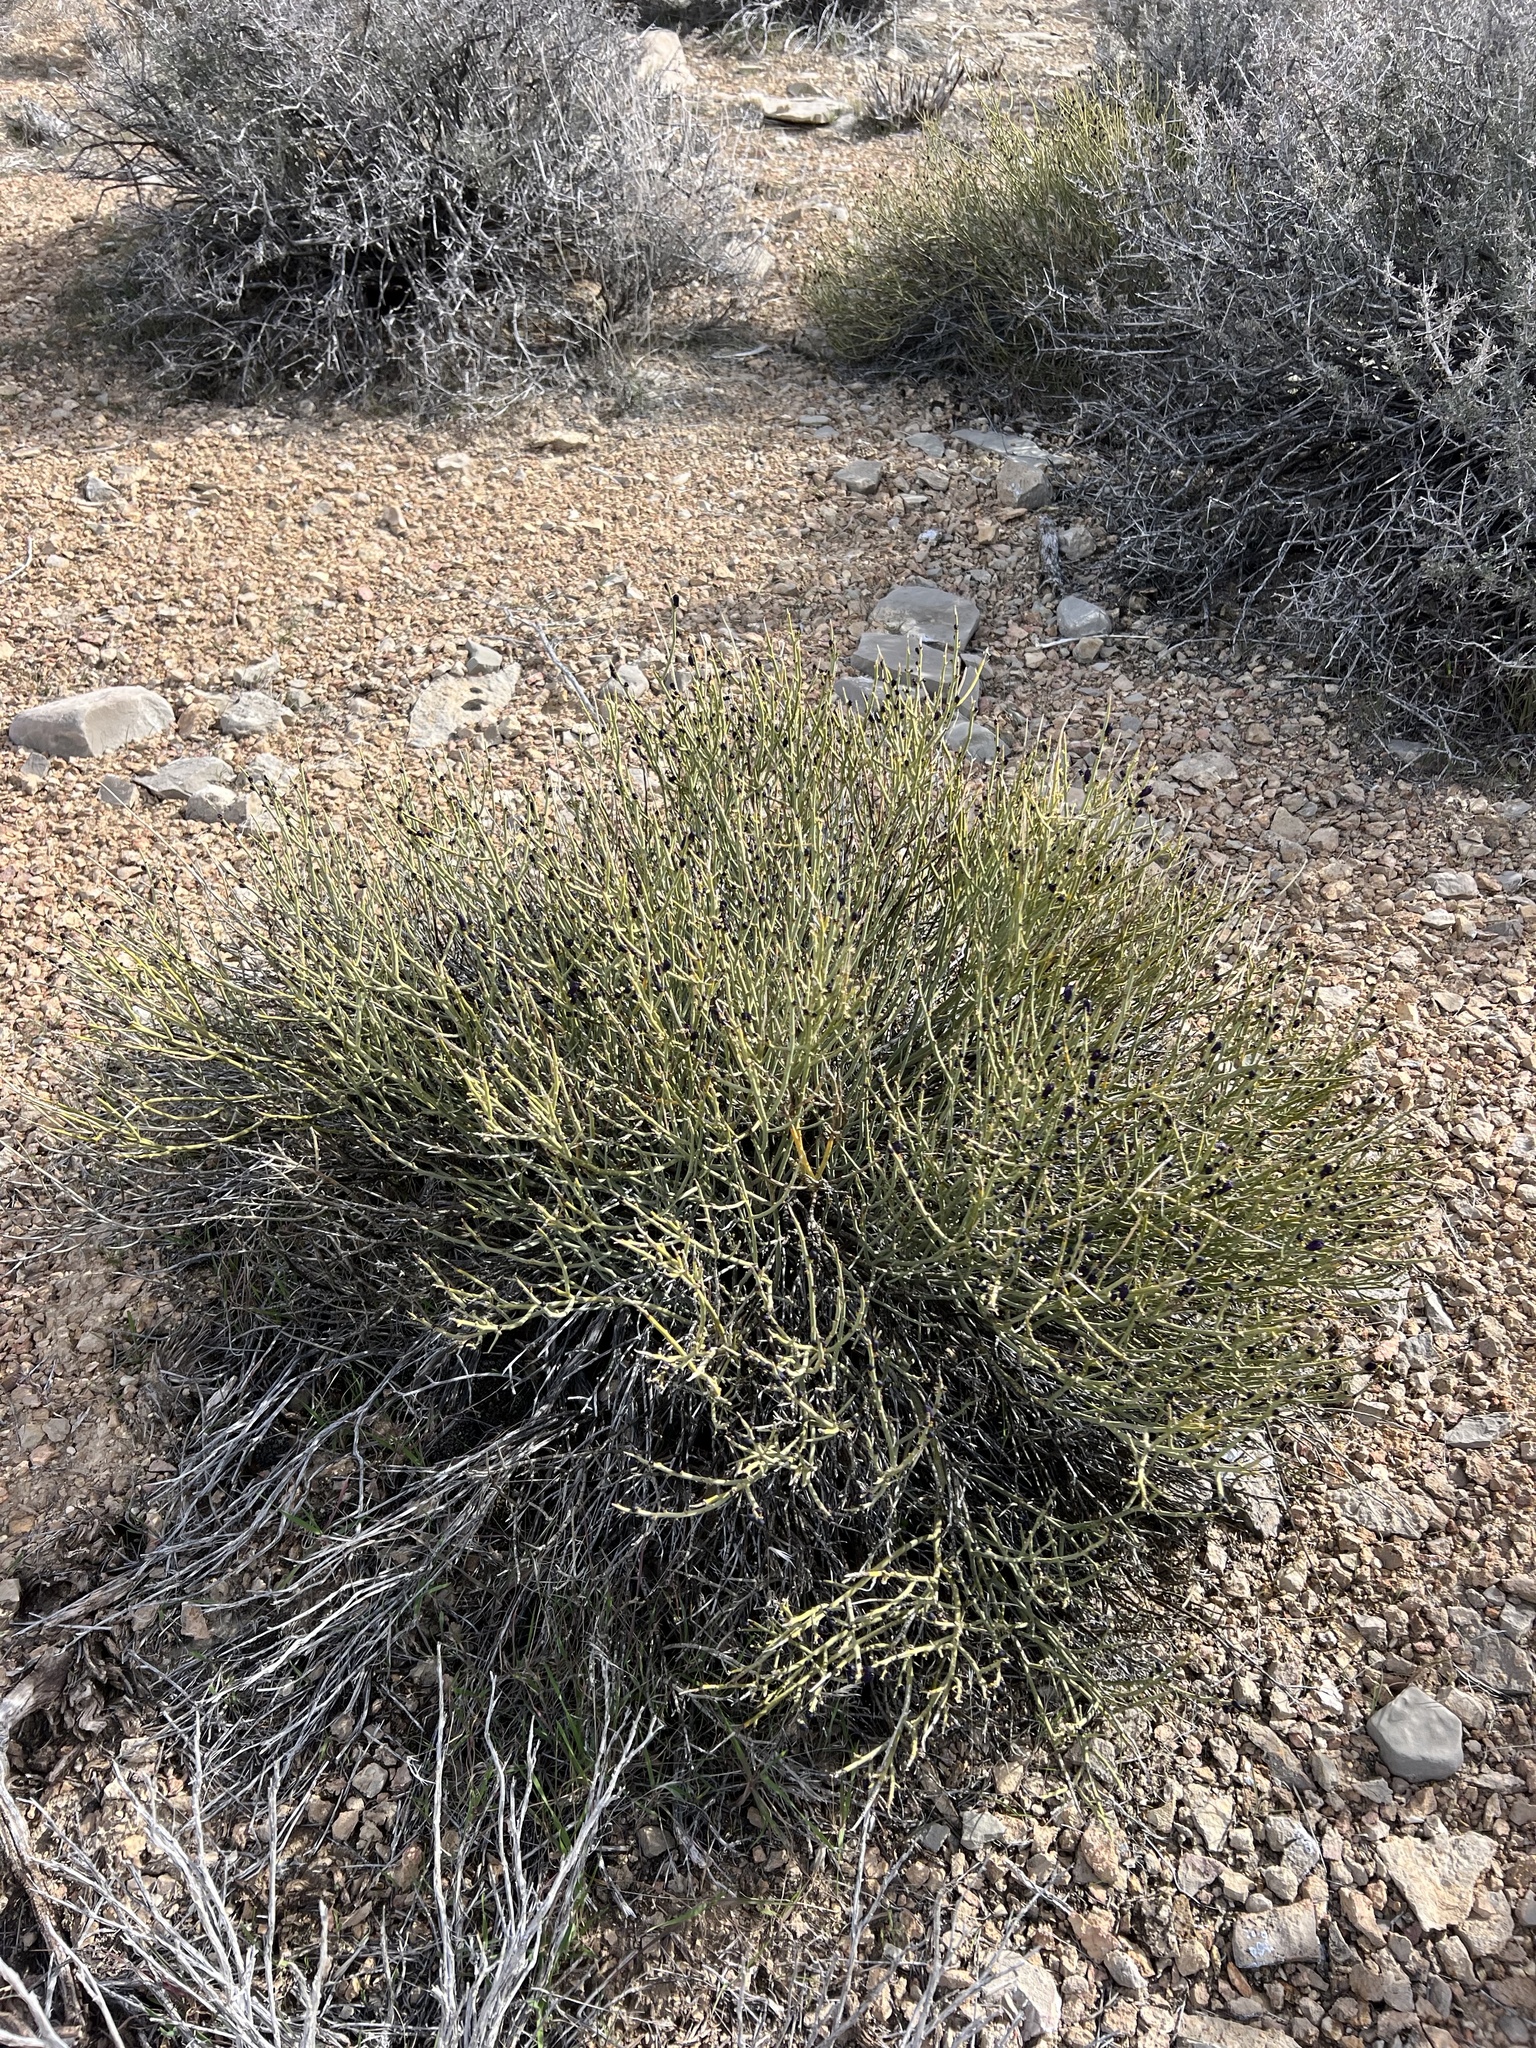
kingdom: Plantae
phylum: Tracheophyta
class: Magnoliopsida
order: Sapindales
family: Rutaceae
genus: Thamnosma
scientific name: Thamnosma montana
